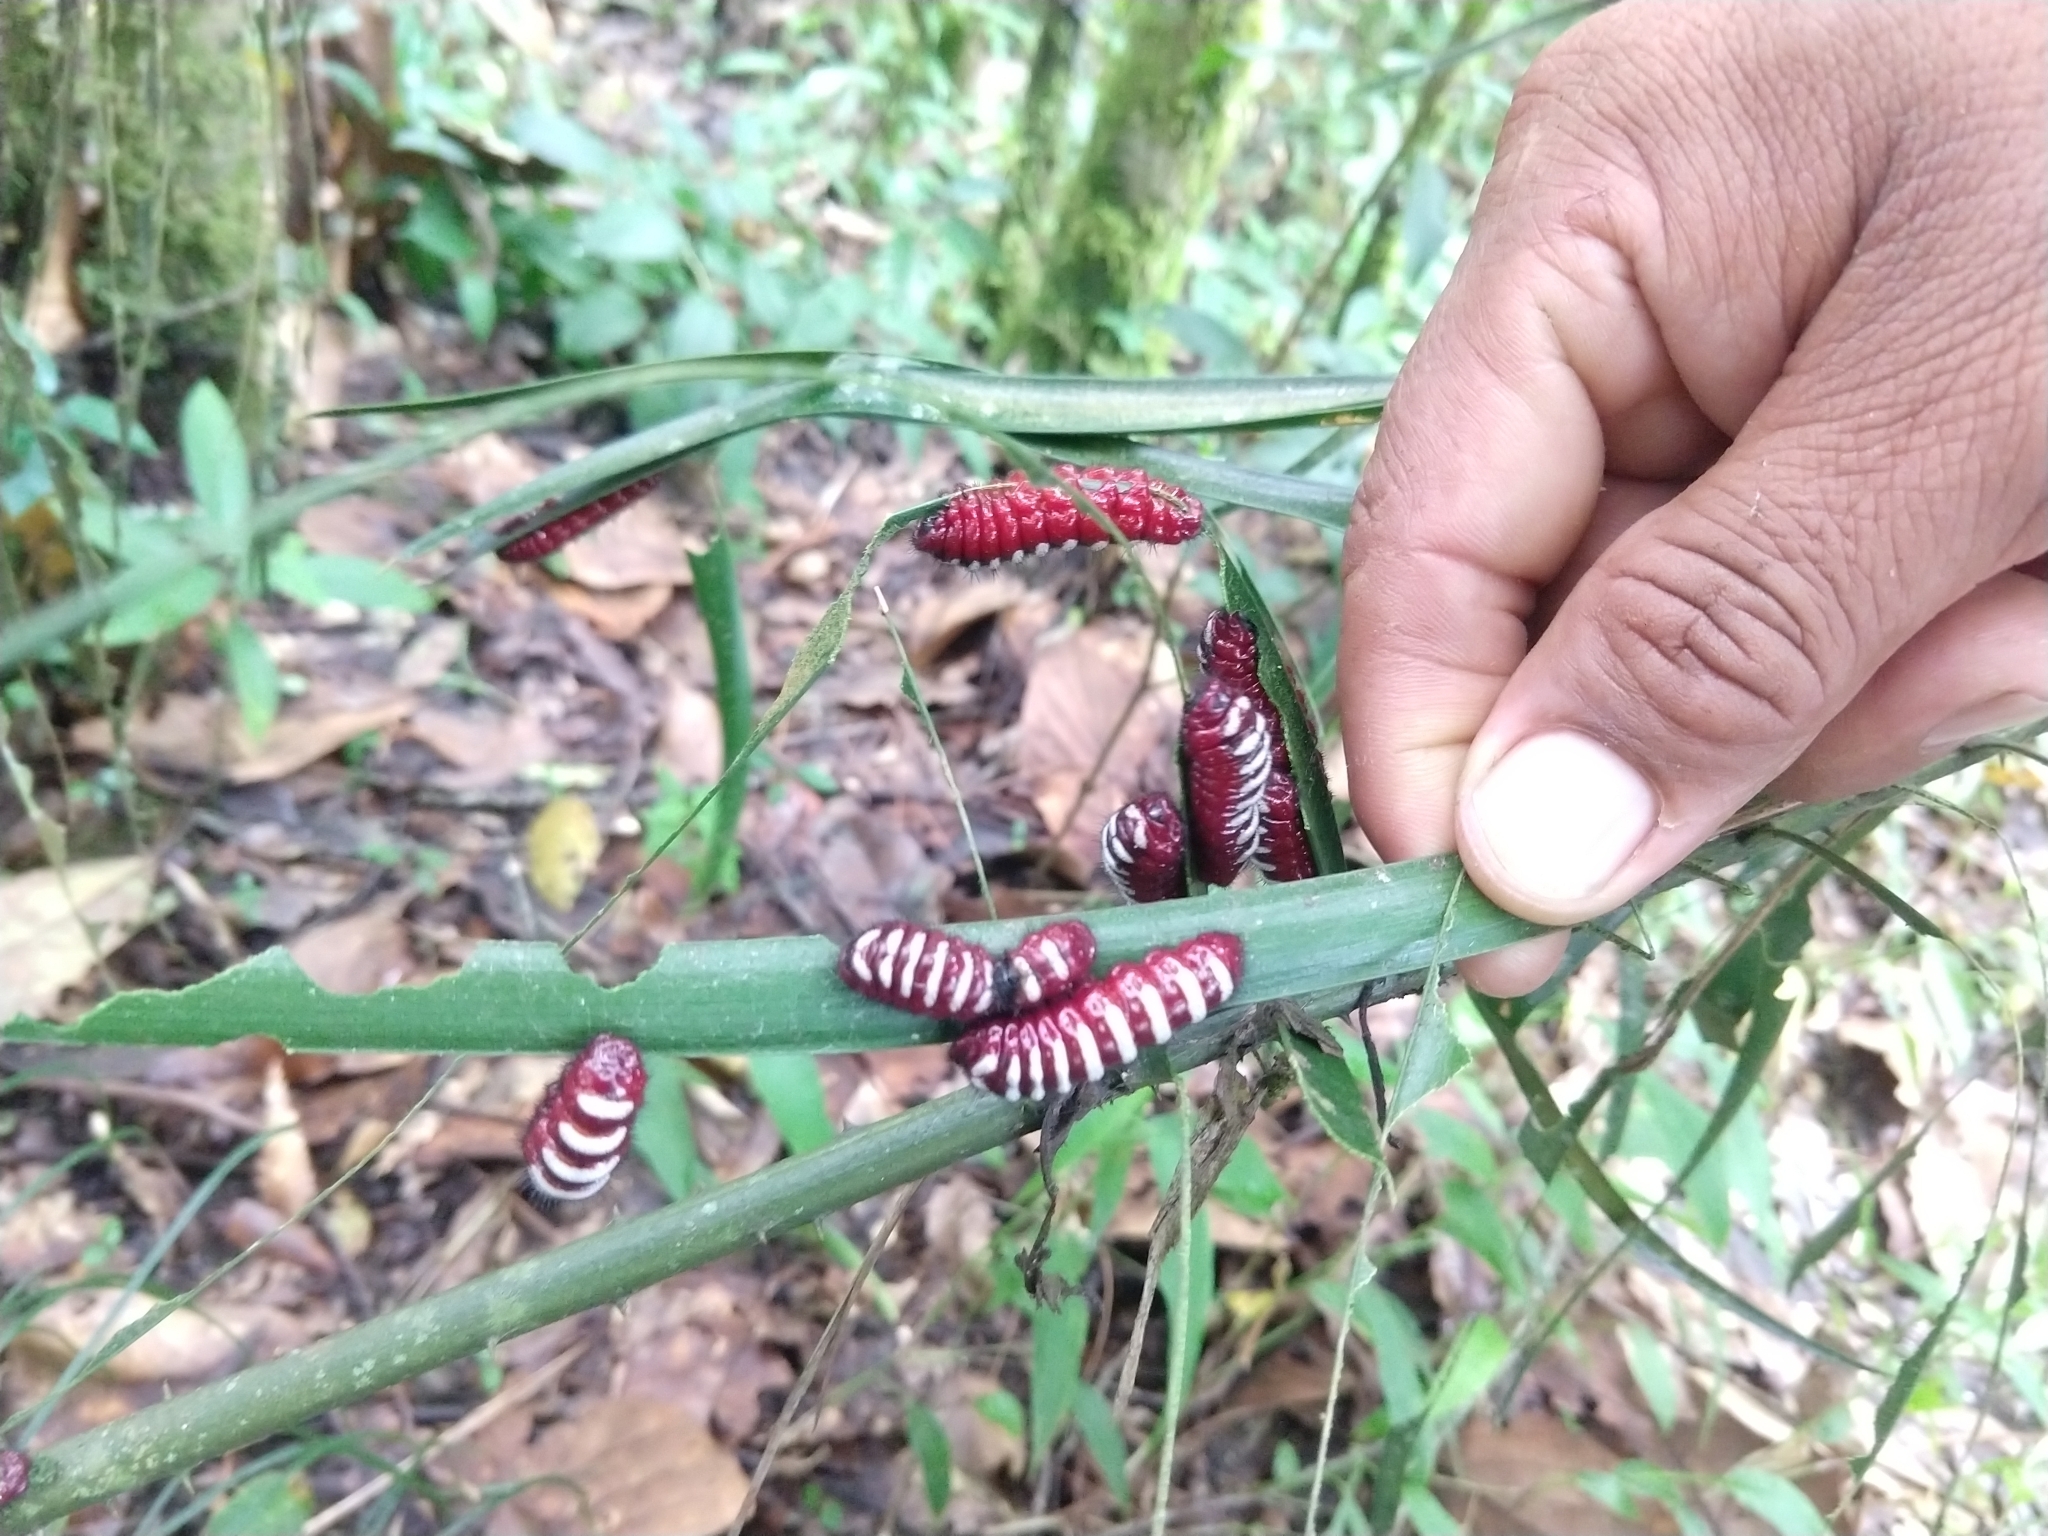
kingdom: Animalia
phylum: Arthropoda
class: Insecta
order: Lepidoptera
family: Lycaenidae
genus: Eumaeus
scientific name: Eumaeus childrenae
